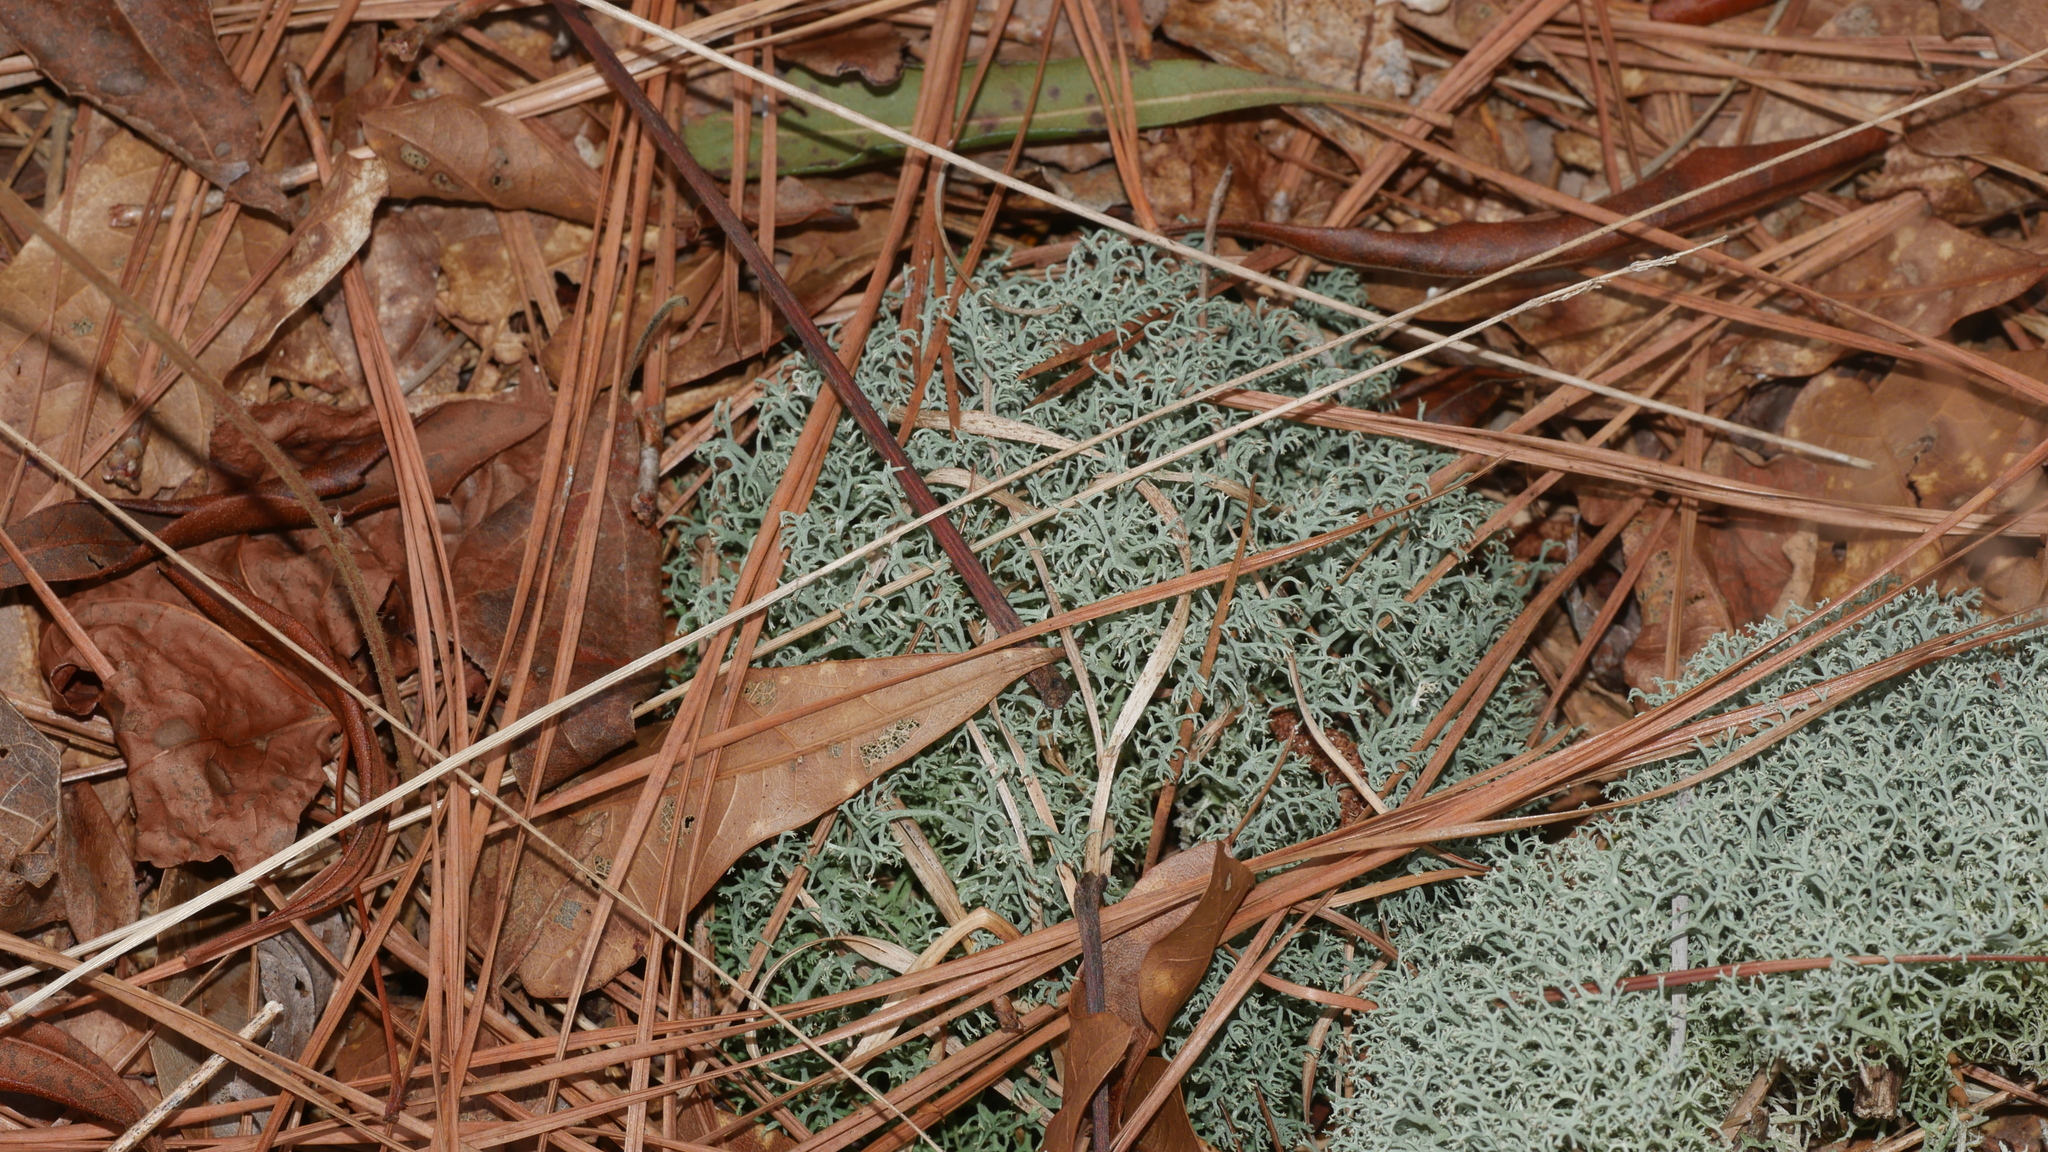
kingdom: Fungi
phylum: Ascomycota
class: Lecanoromycetes
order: Lecanorales
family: Cladoniaceae
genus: Cladonia
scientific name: Cladonia subtenuis
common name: Dixie reindeer lichen
